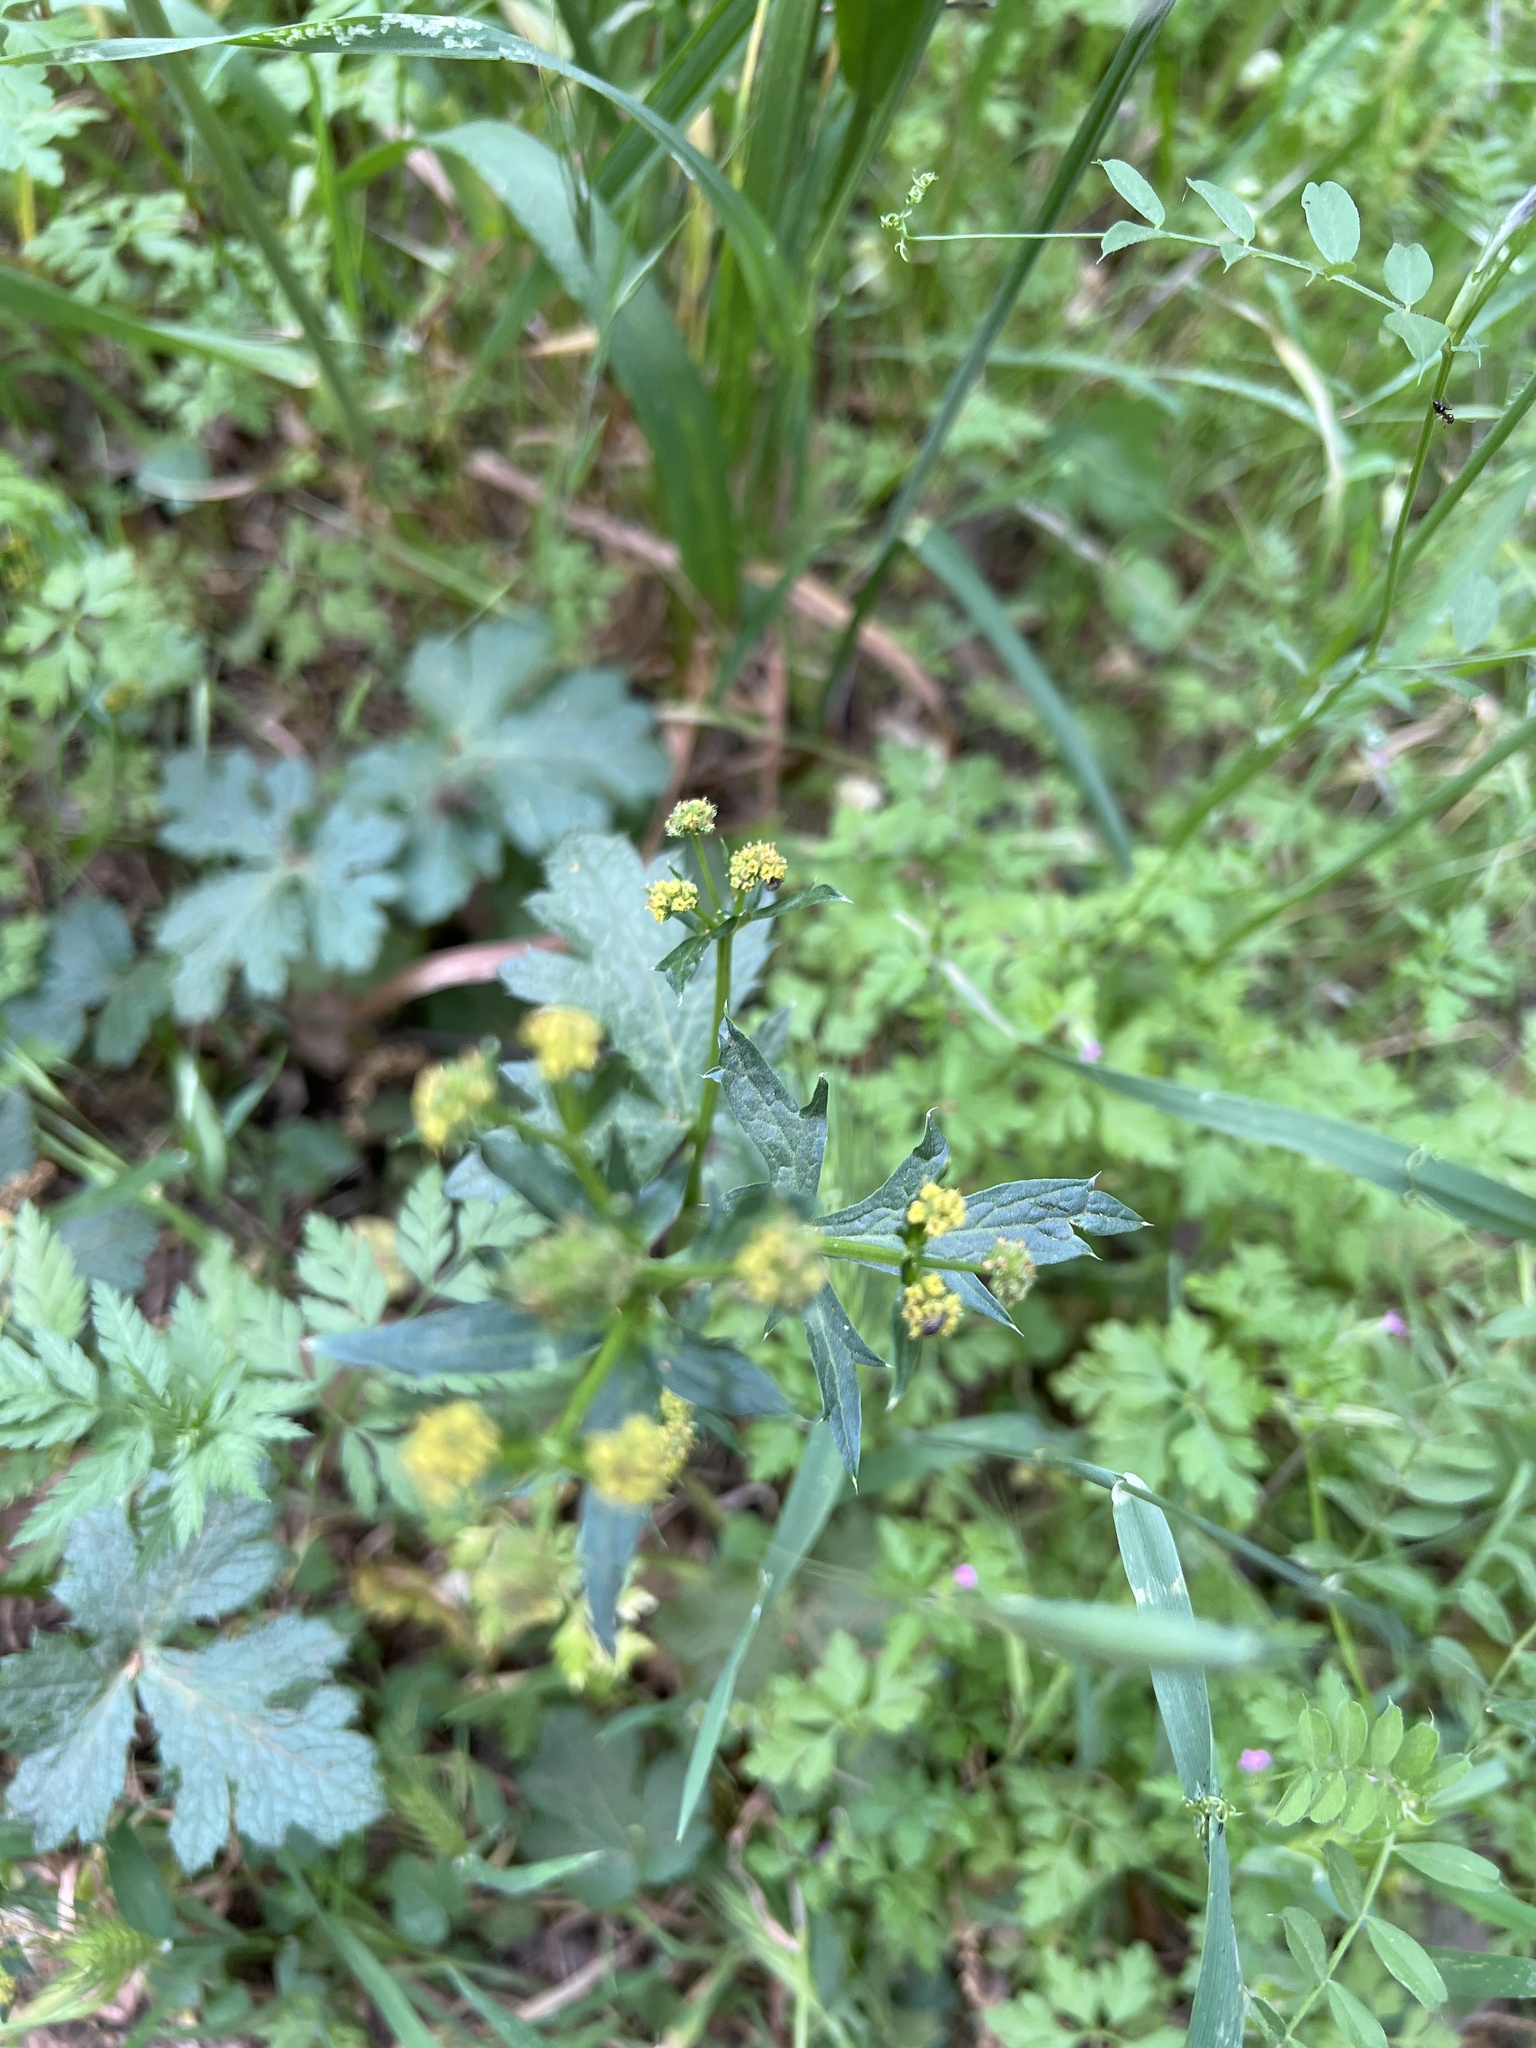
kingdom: Plantae
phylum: Tracheophyta
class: Magnoliopsida
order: Apiales
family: Apiaceae
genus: Sanicula
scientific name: Sanicula crassicaulis
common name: Western snakeroot
